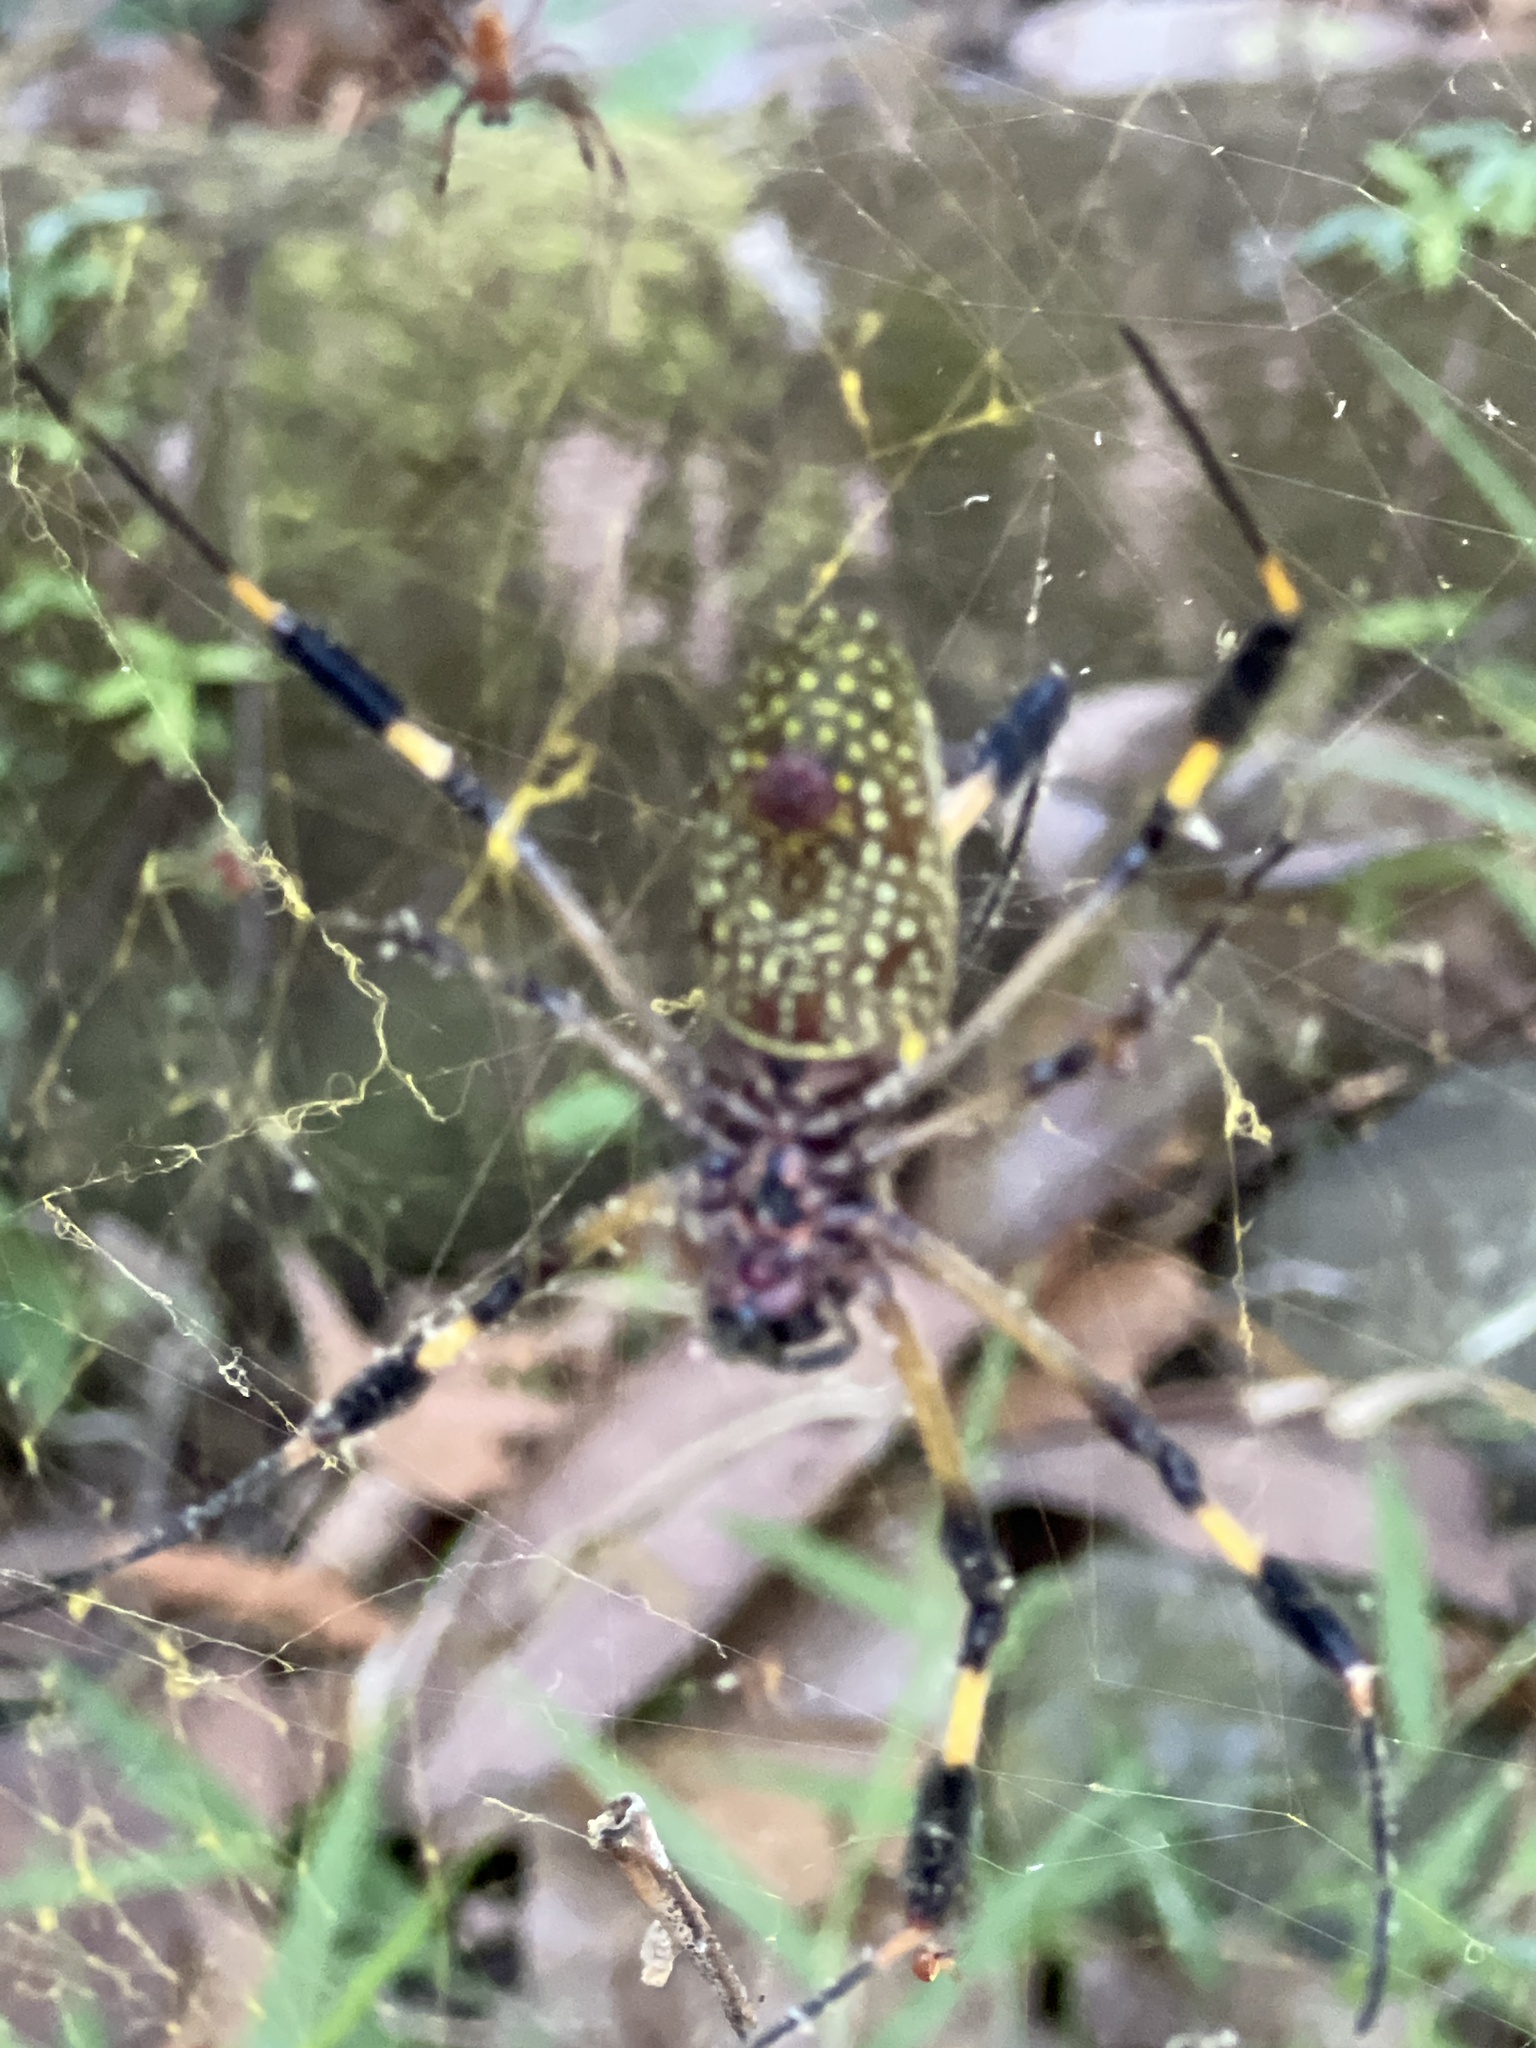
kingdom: Animalia
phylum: Arthropoda
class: Arachnida
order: Araneae
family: Araneidae
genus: Trichonephila
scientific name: Trichonephila clavipes
